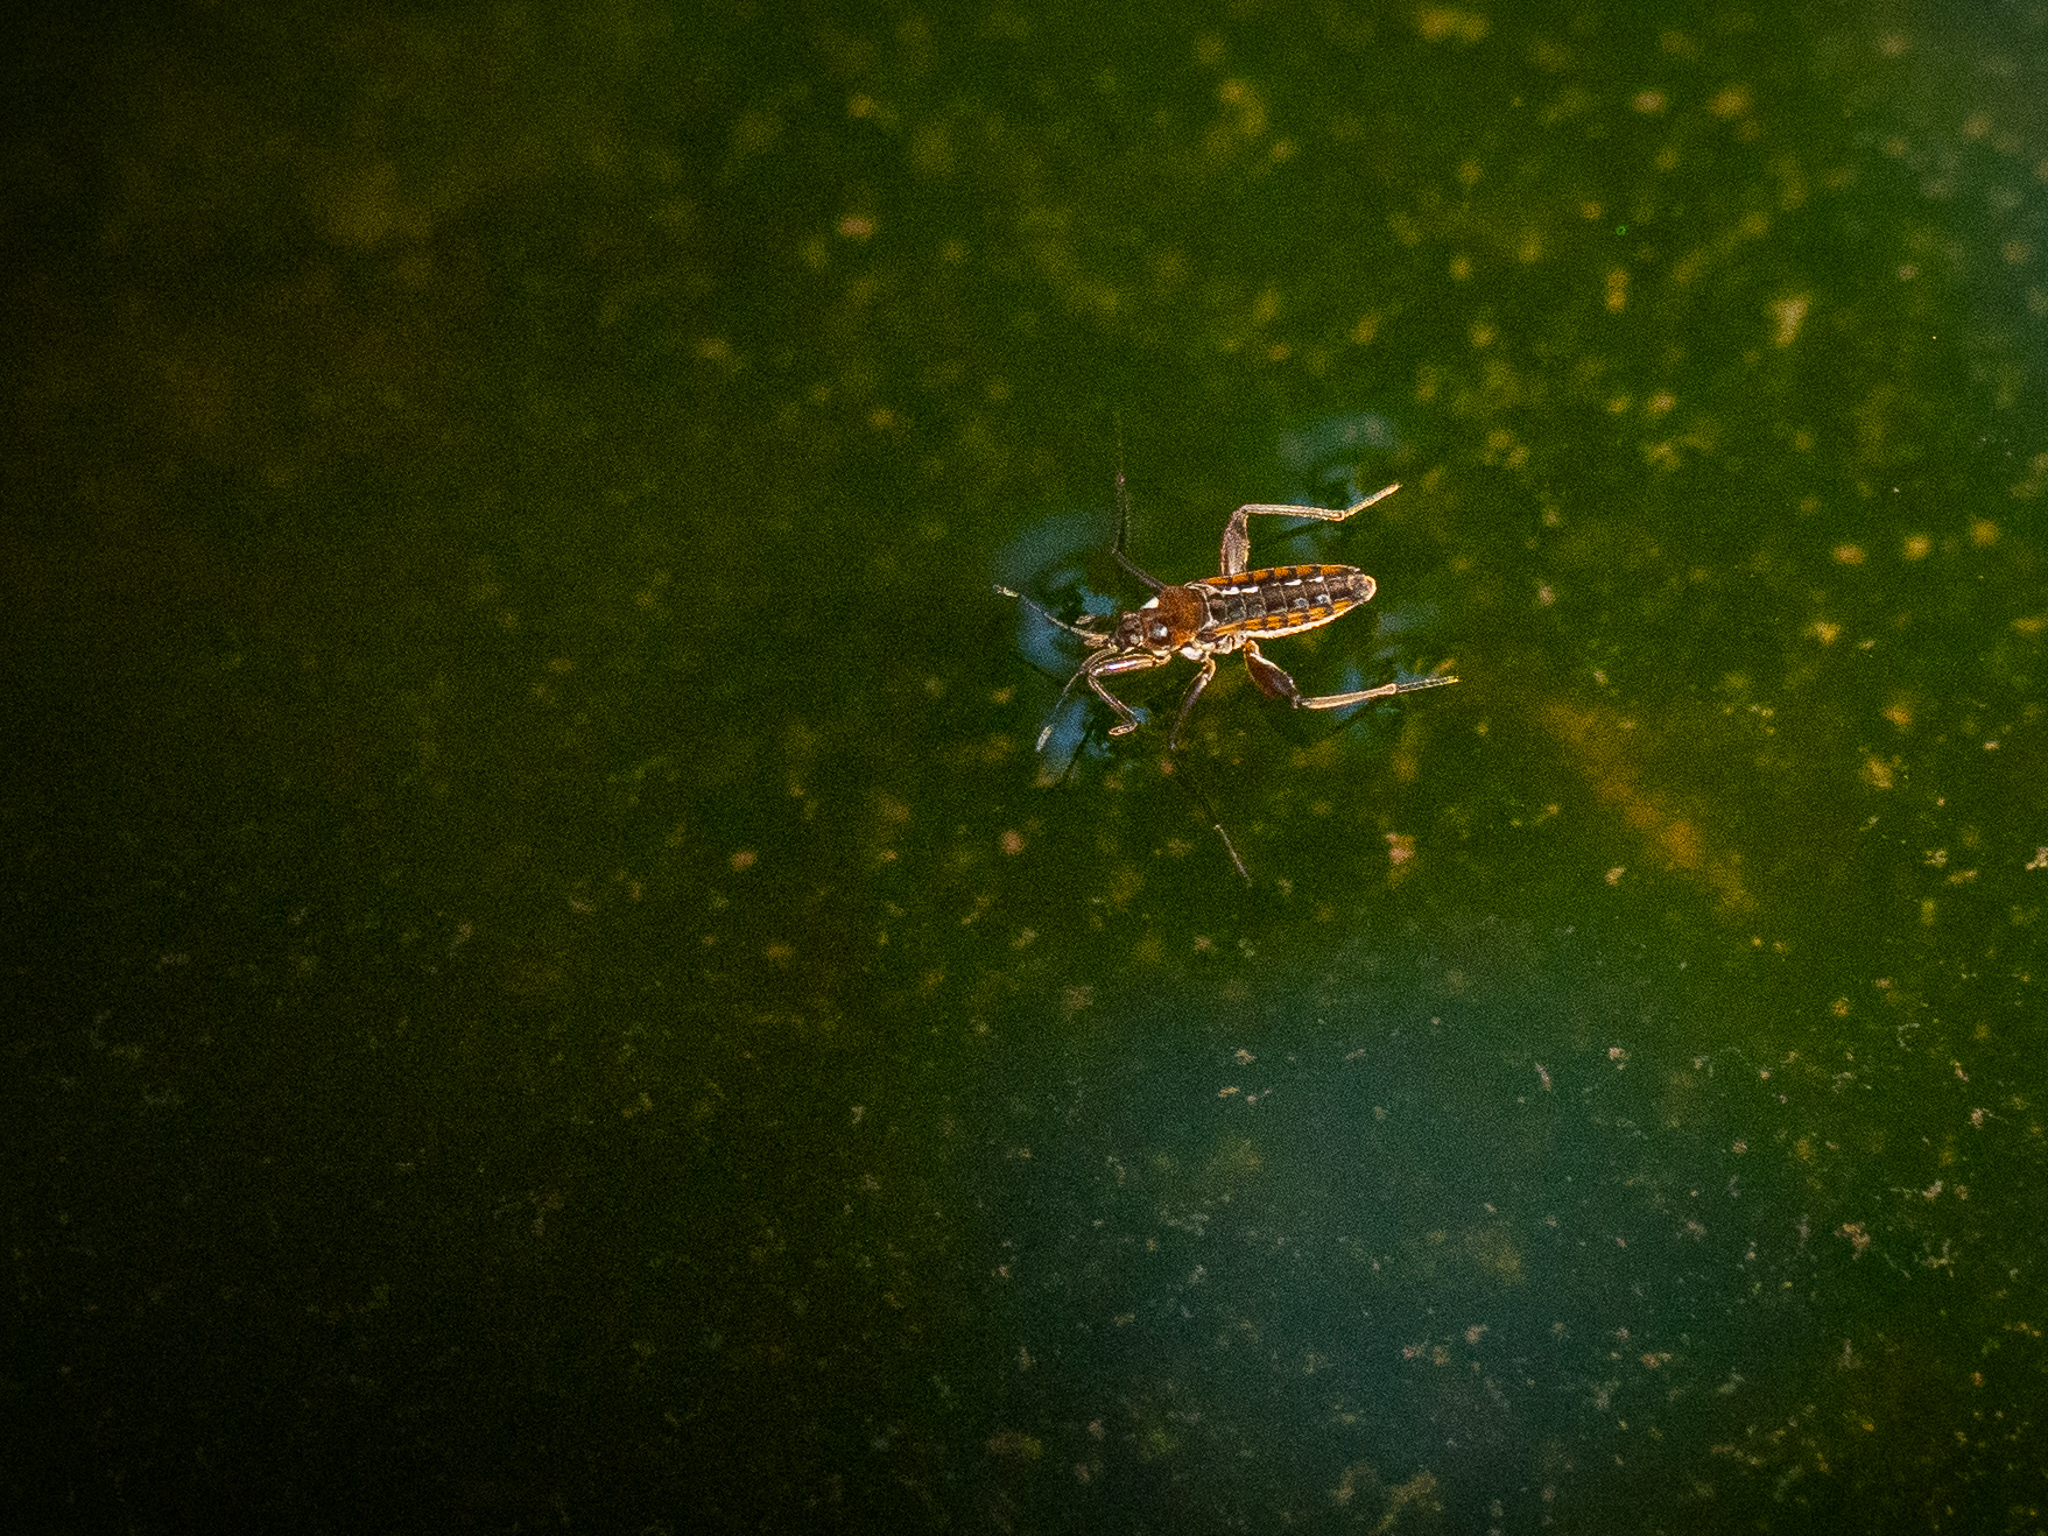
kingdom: Animalia
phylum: Arthropoda
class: Insecta
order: Hemiptera
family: Veliidae
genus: Velia
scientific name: Velia
